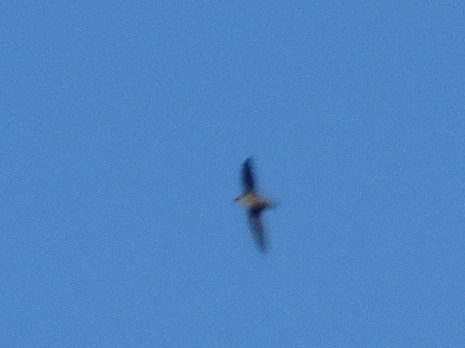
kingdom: Animalia
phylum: Chordata
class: Aves
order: Apodiformes
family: Apodidae
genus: Chaetura
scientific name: Chaetura pelagica
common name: Chimney swift
